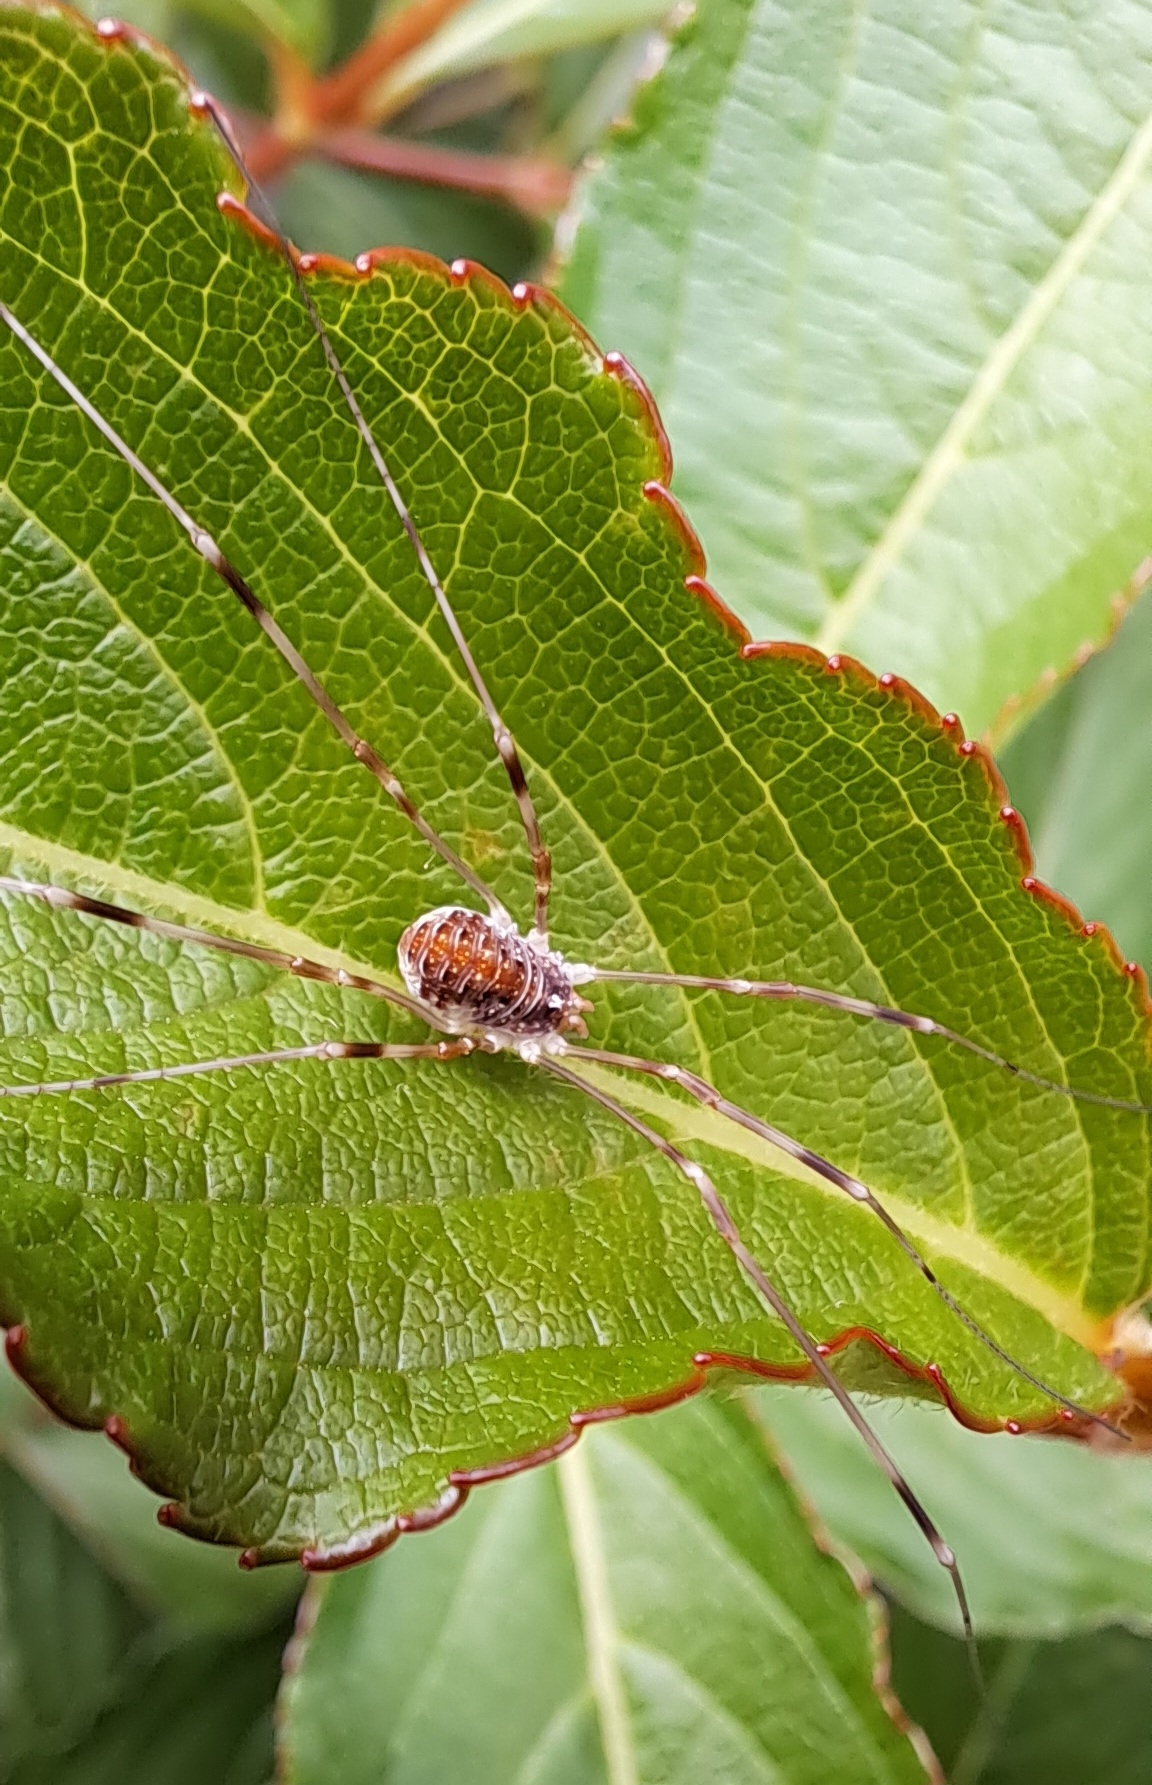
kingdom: Animalia
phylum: Arthropoda
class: Arachnida
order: Opiliones
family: Phalangiidae
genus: Opilio
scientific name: Opilio canestrinii
